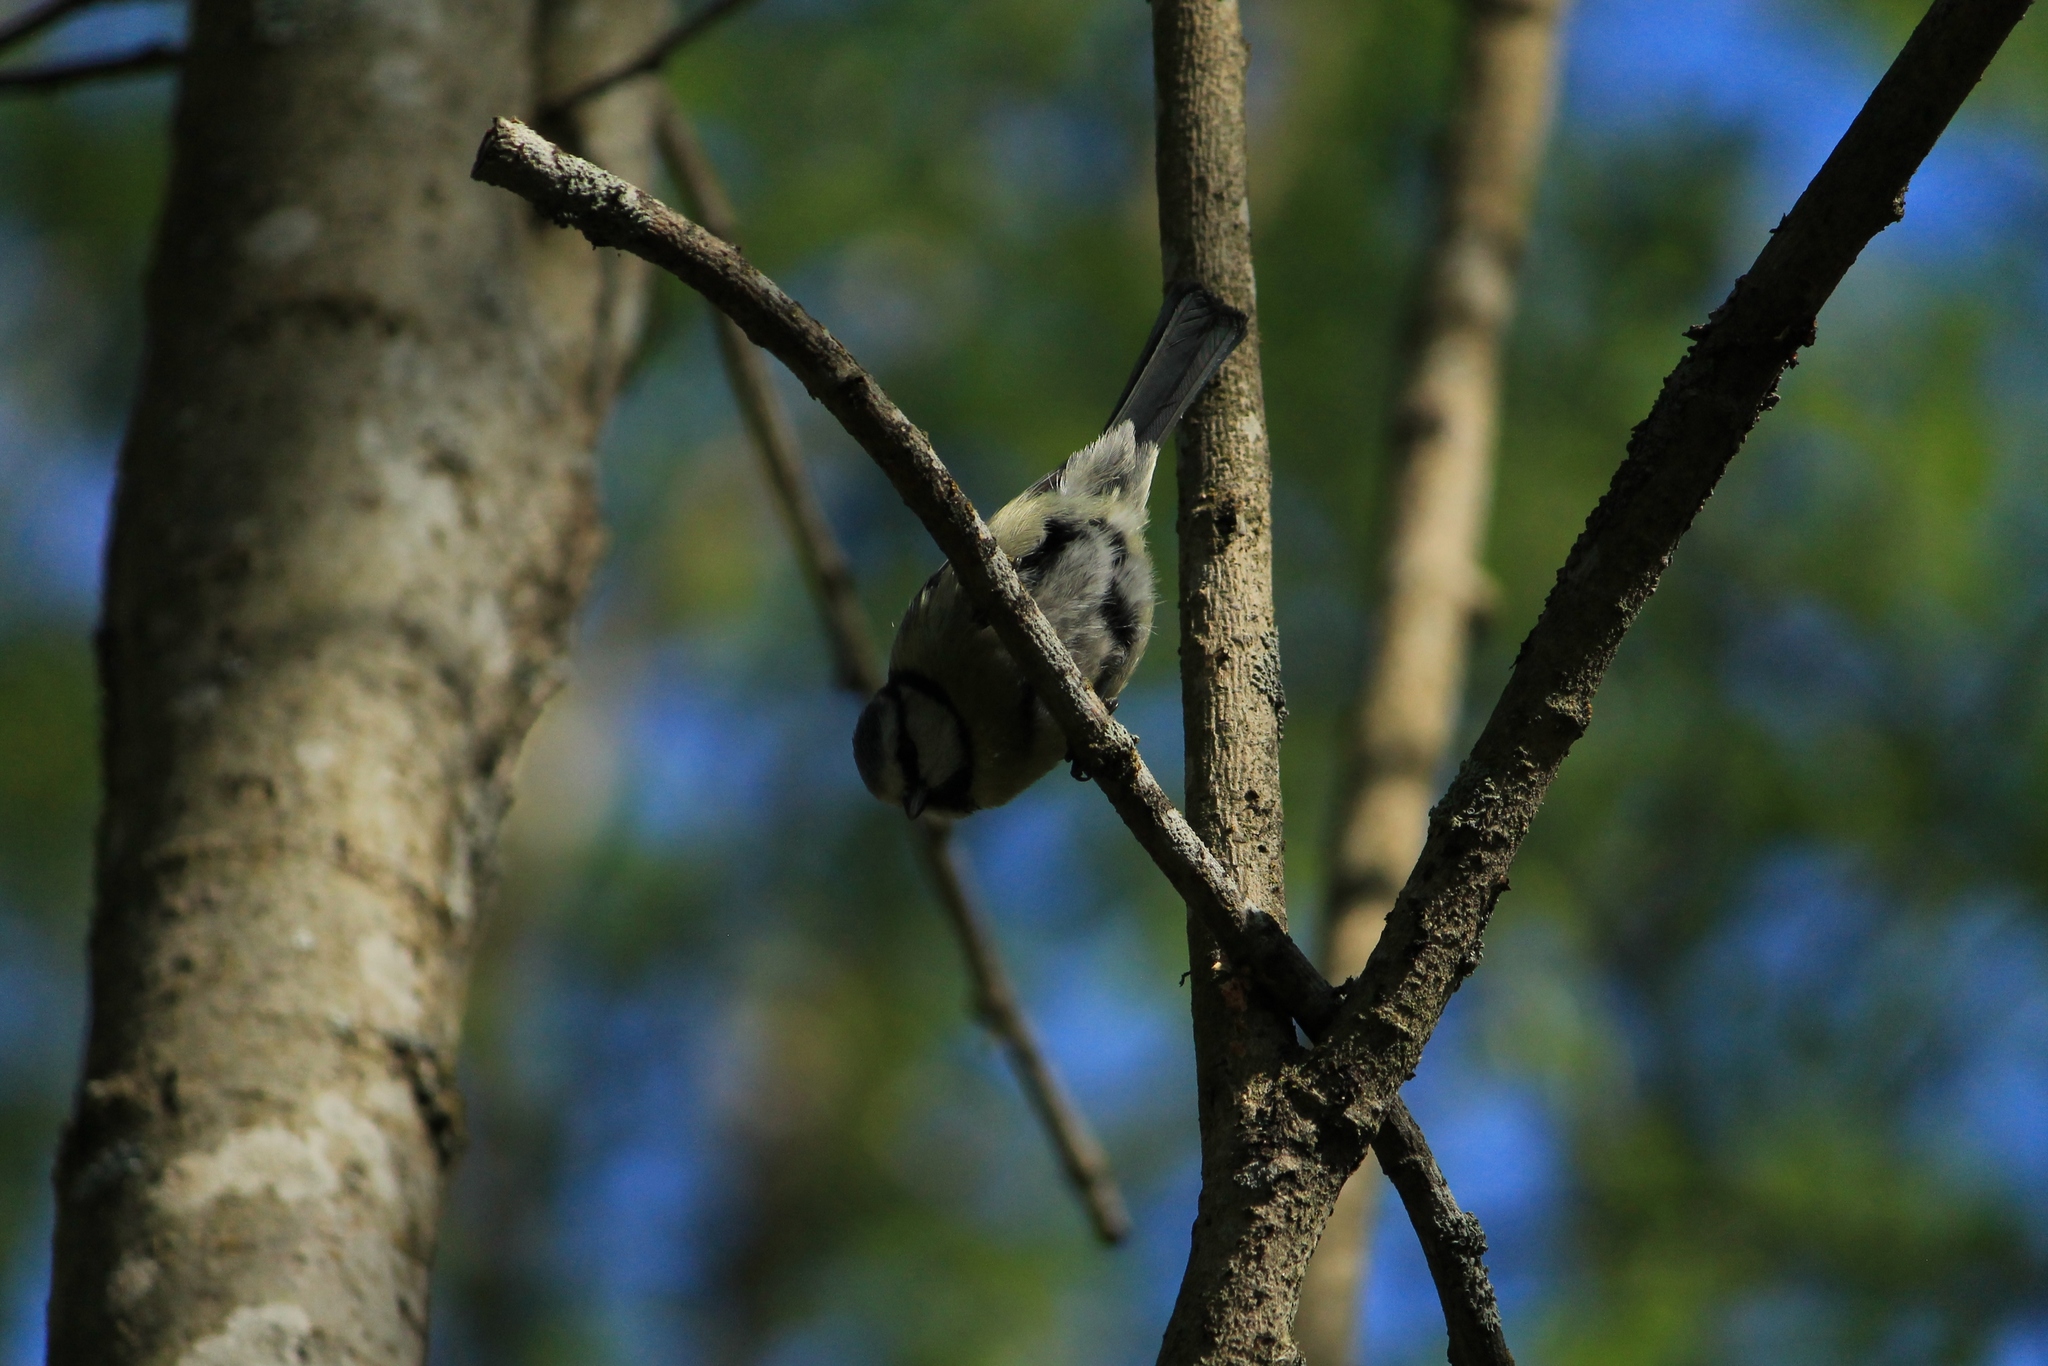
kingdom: Animalia
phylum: Chordata
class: Aves
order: Passeriformes
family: Paridae
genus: Cyanistes
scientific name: Cyanistes caeruleus
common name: Eurasian blue tit
